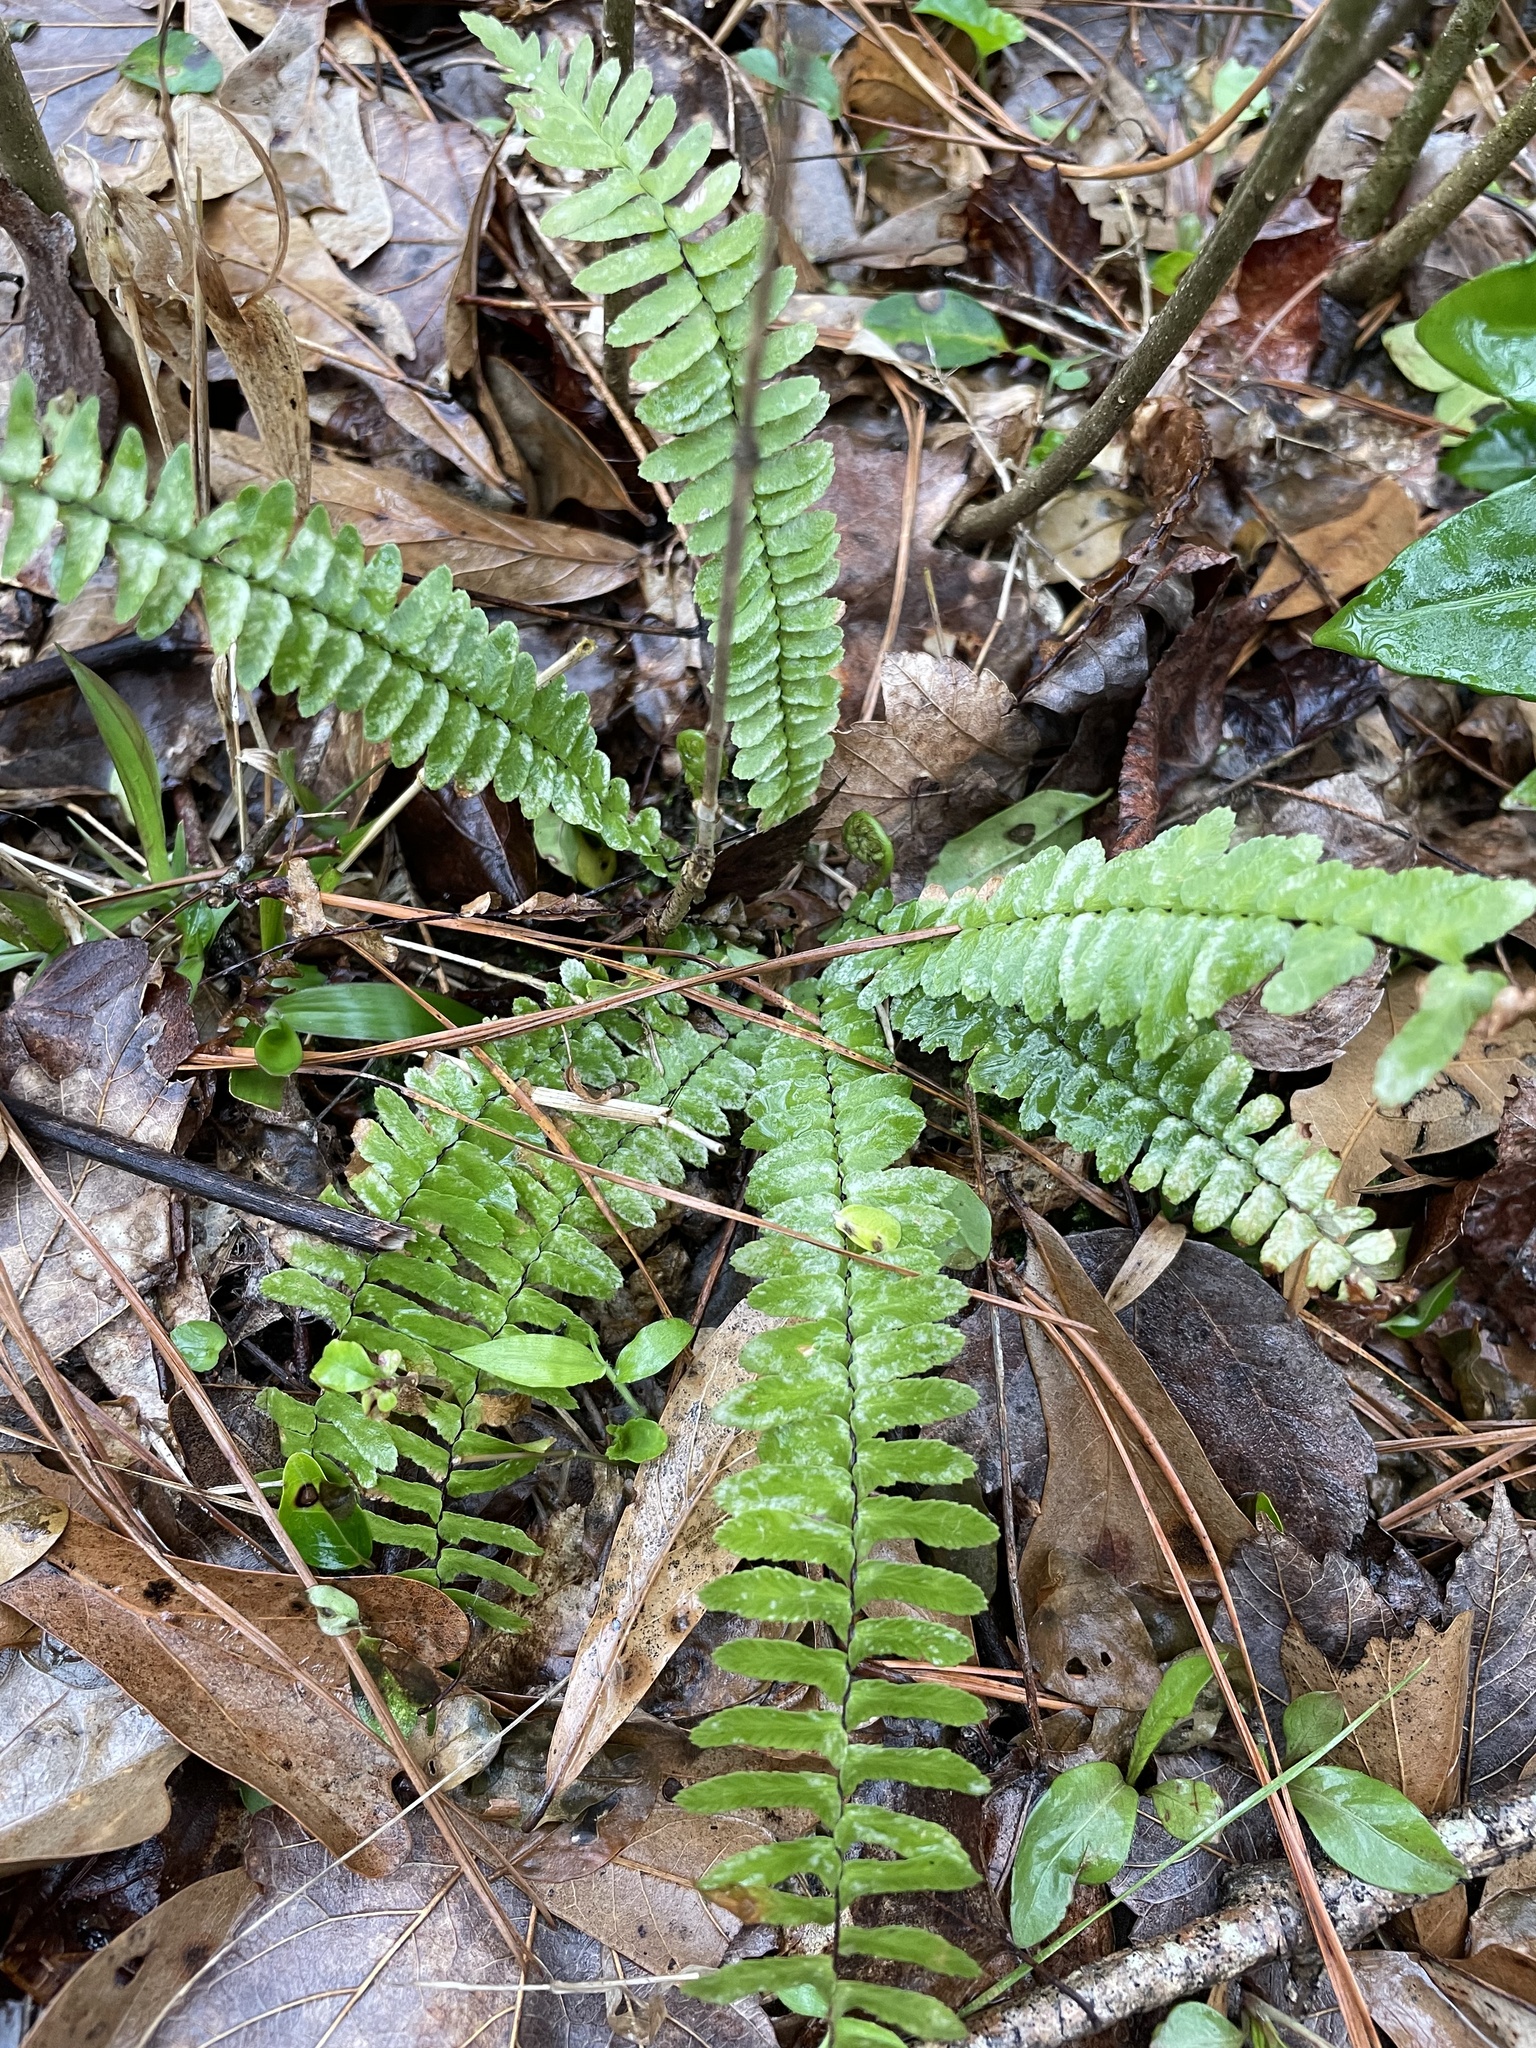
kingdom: Plantae
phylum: Tracheophyta
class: Polypodiopsida
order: Polypodiales
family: Aspleniaceae
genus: Asplenium
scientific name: Asplenium platyneuron
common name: Ebony spleenwort
